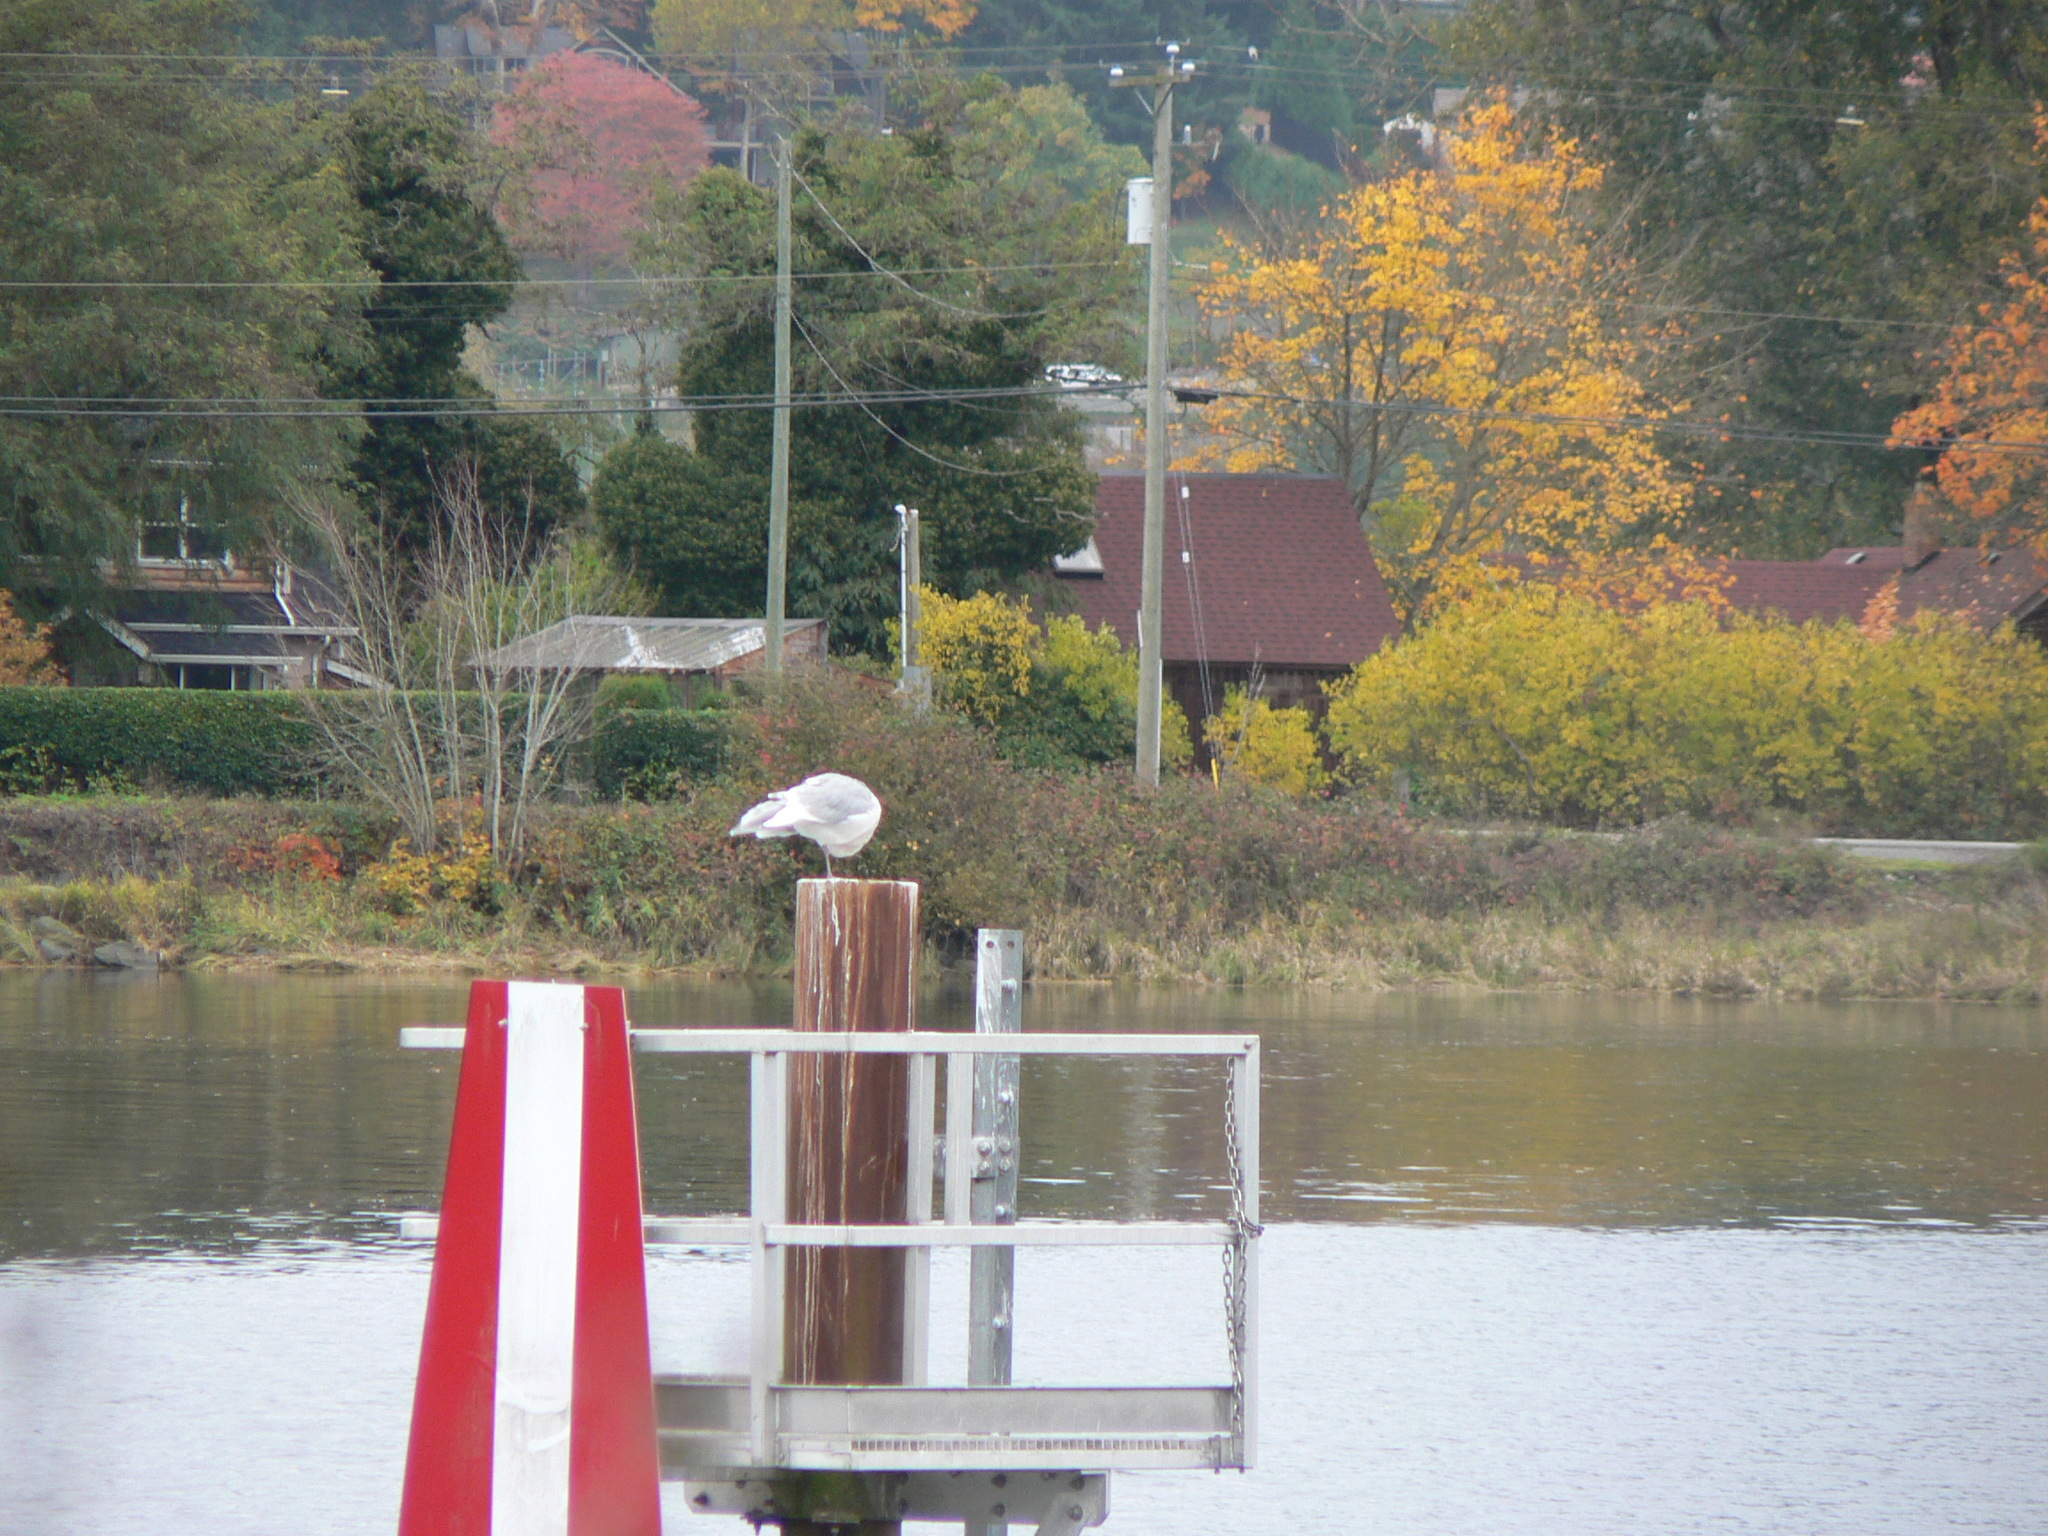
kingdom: Animalia
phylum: Chordata
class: Aves
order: Charadriiformes
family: Laridae
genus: Larus
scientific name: Larus glaucescens
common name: Glaucous-winged gull
